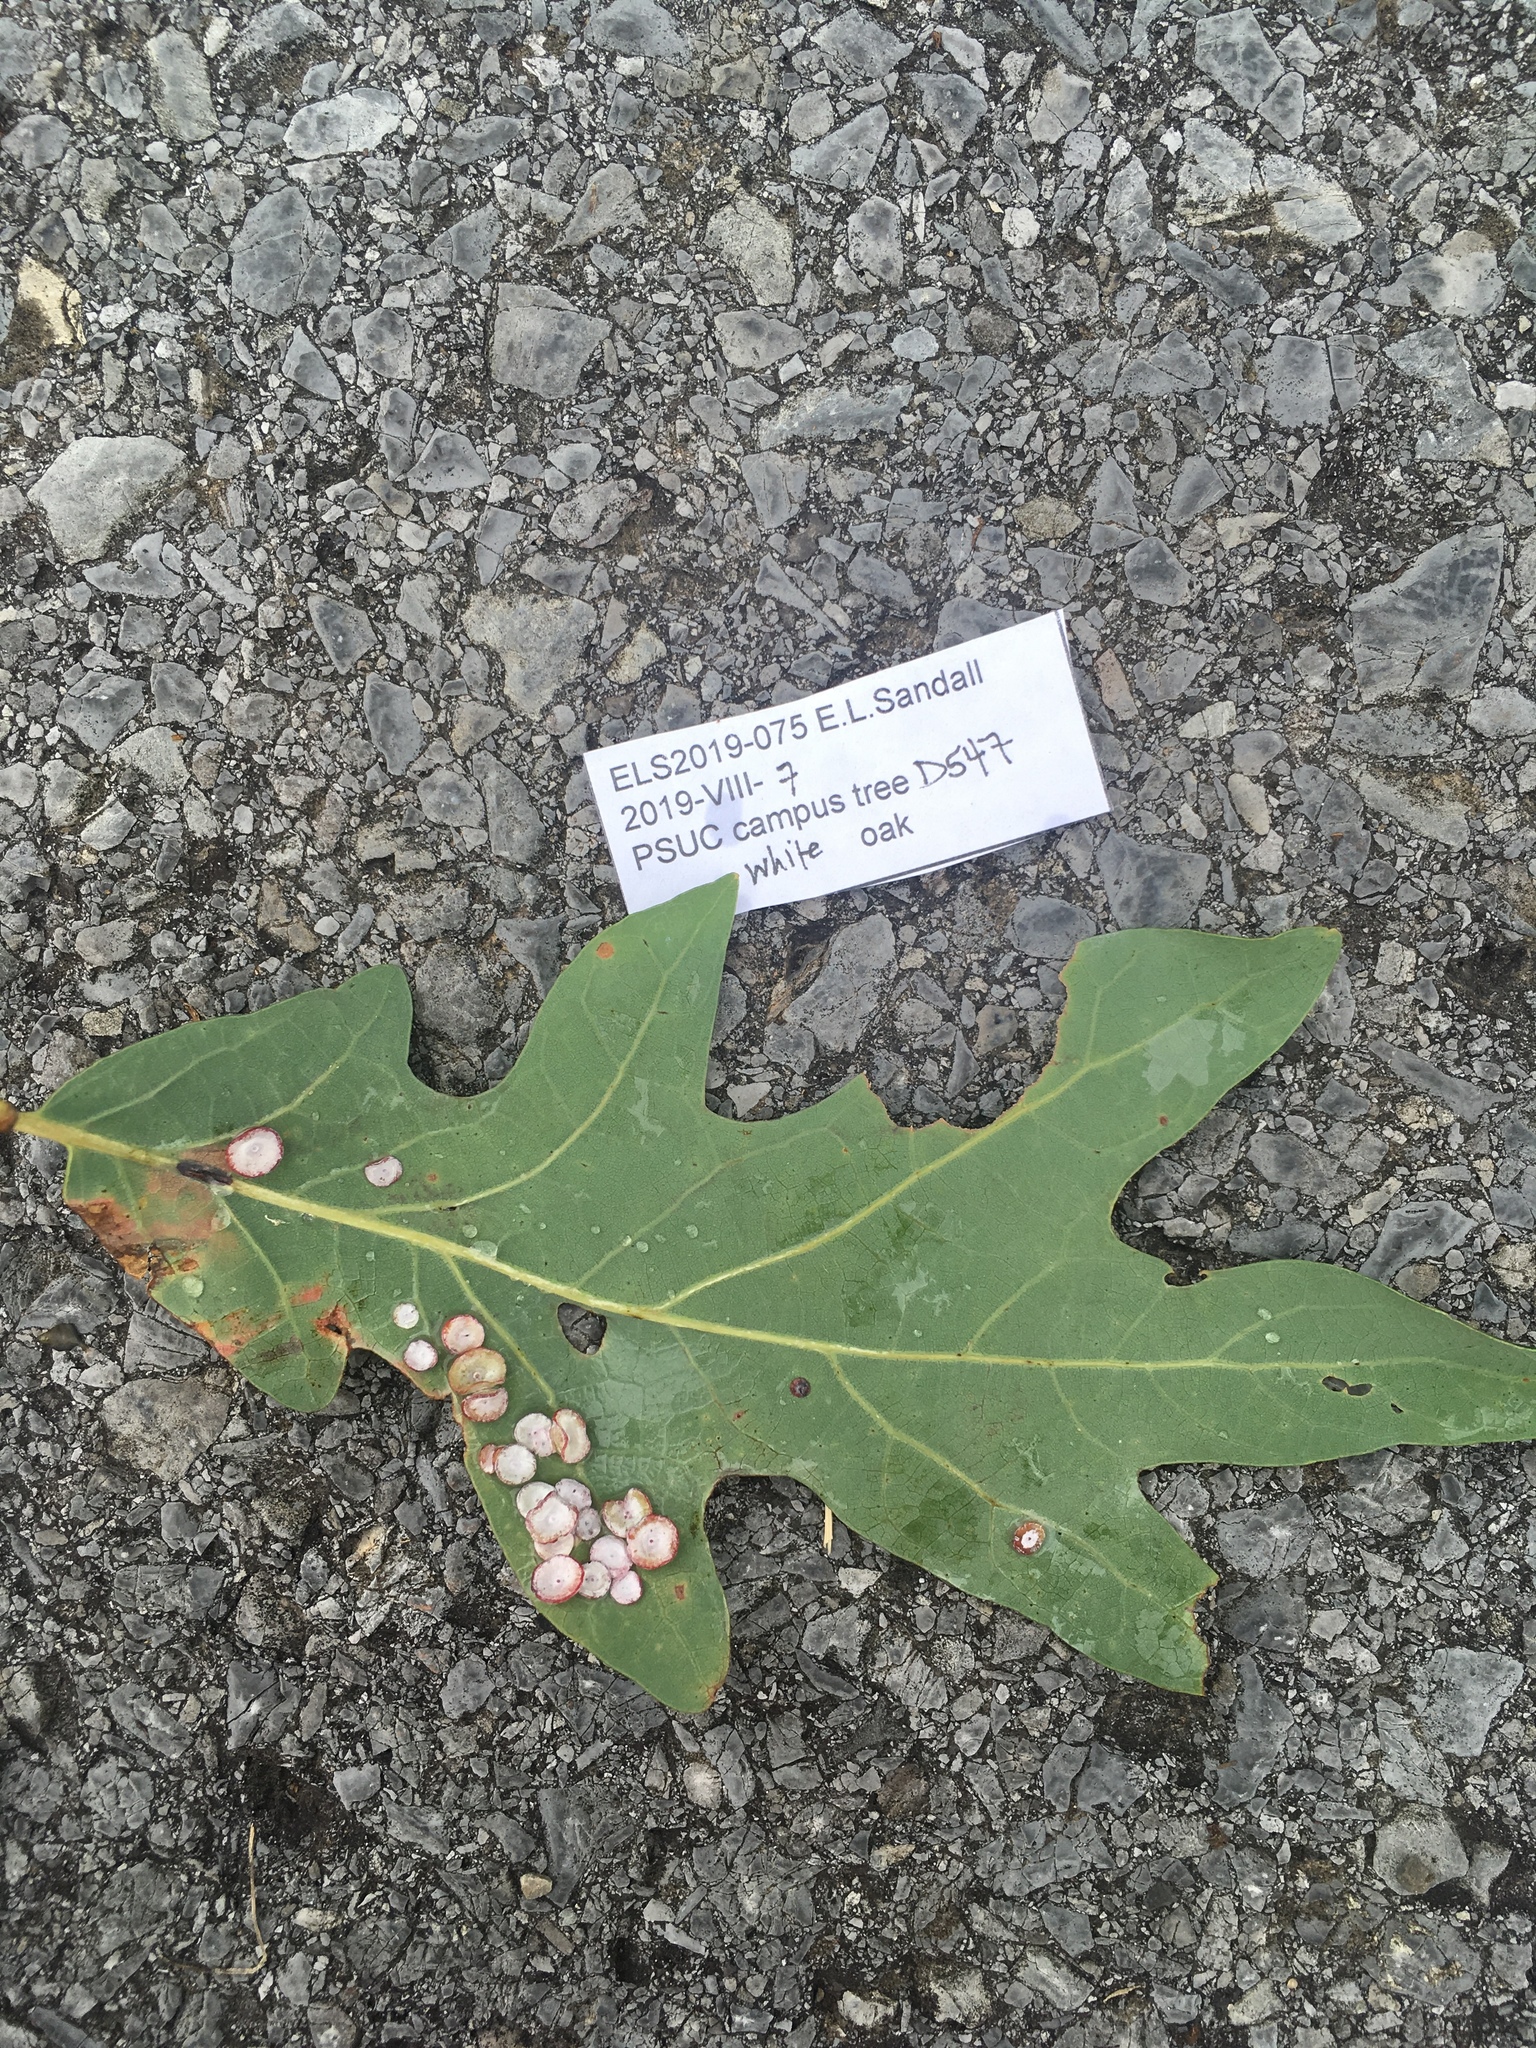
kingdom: Animalia
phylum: Arthropoda
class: Insecta
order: Hymenoptera
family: Cynipidae
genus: Phylloteras
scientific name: Phylloteras poculum
